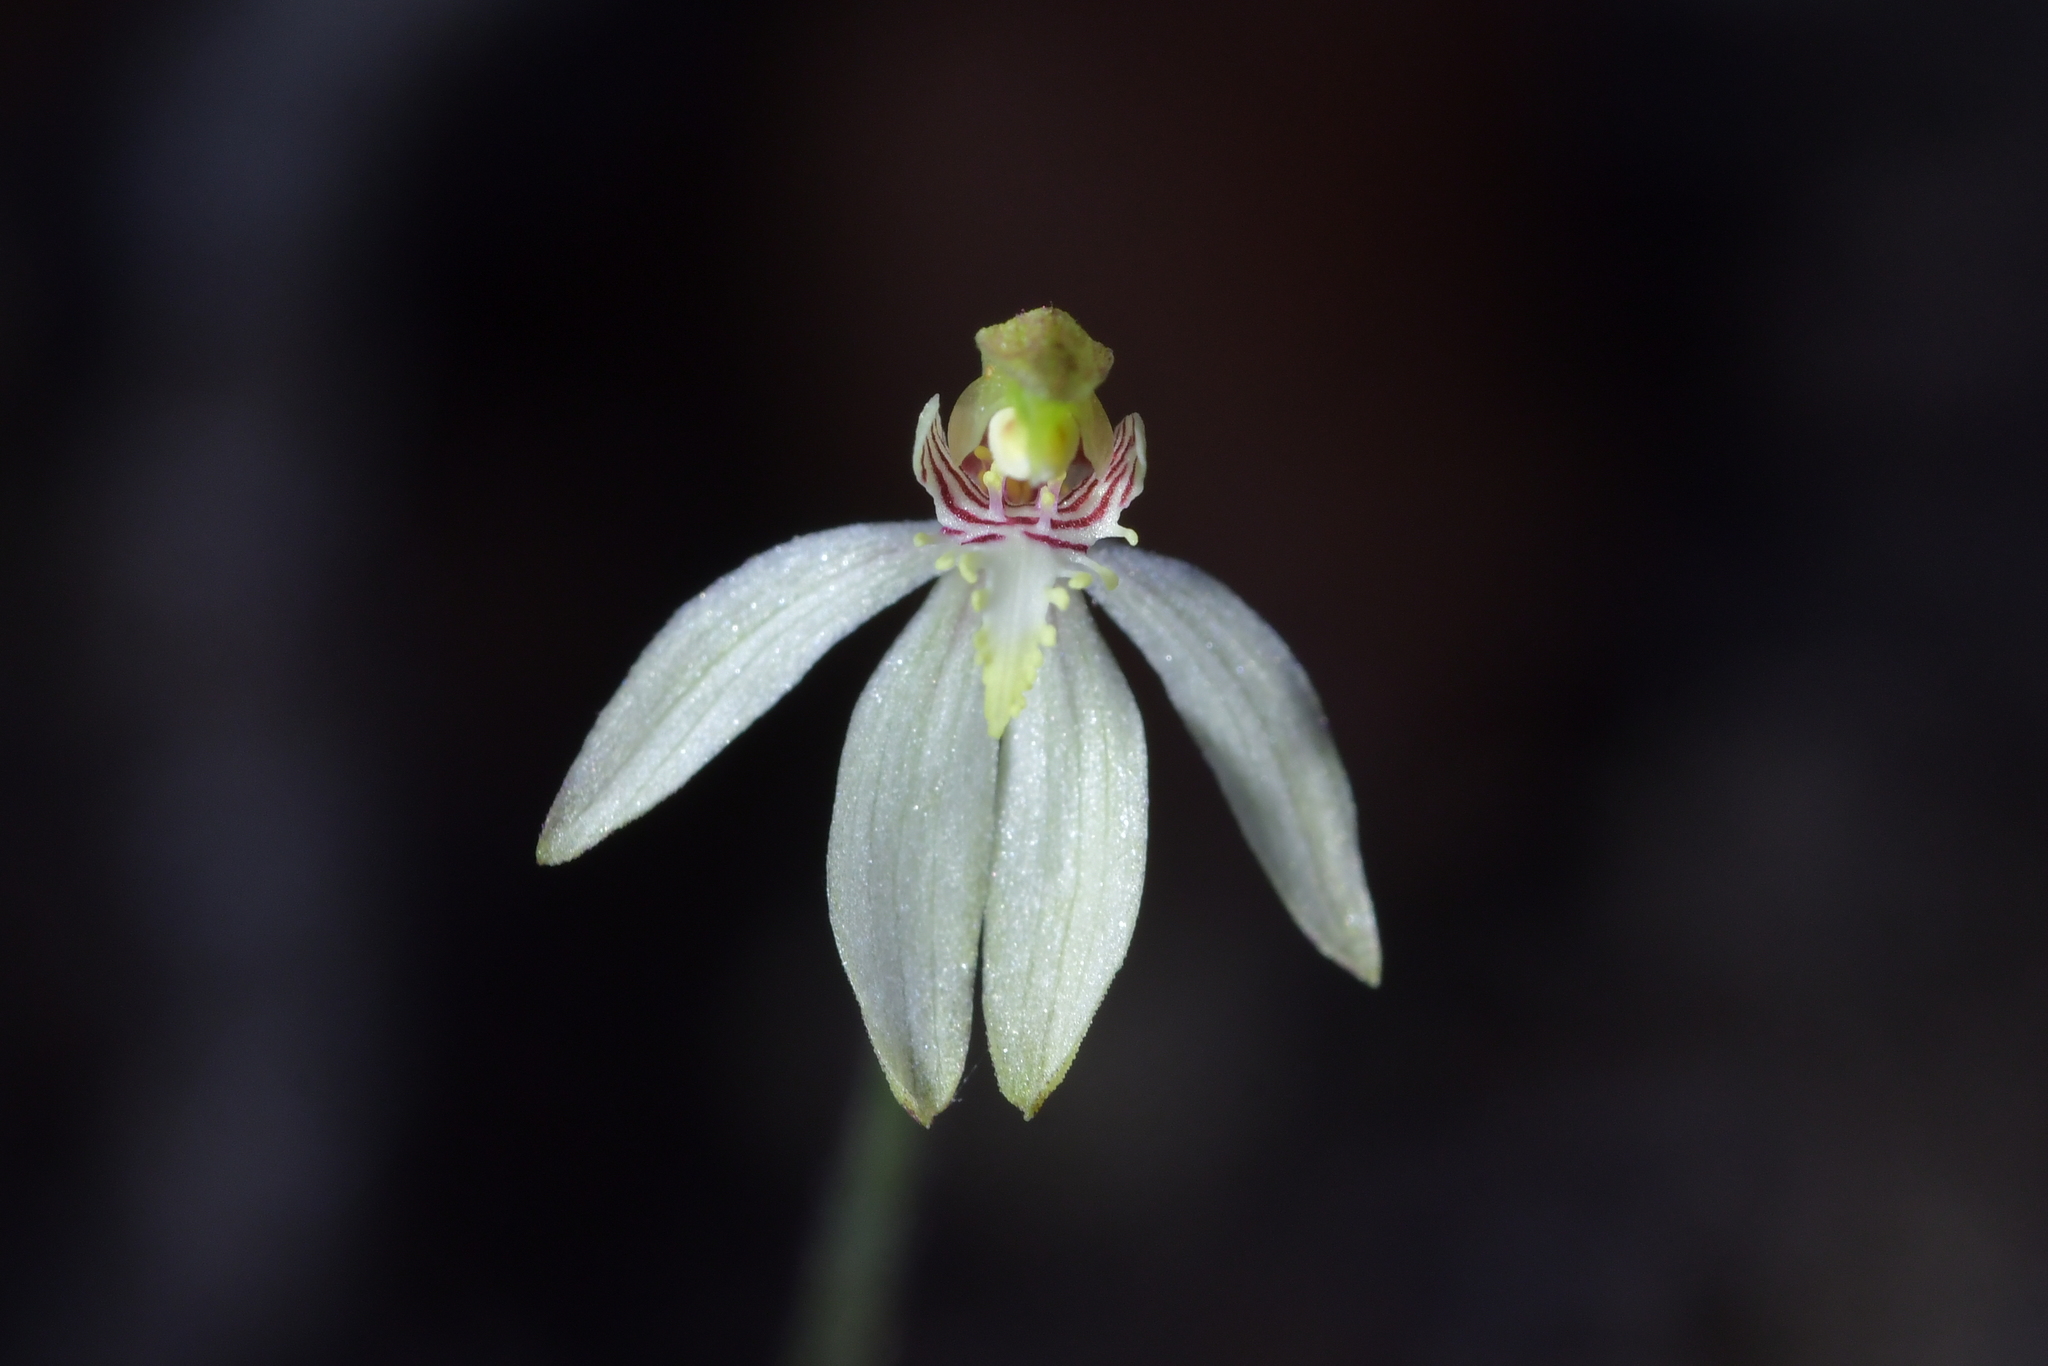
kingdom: Plantae
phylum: Tracheophyta
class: Liliopsida
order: Asparagales
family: Orchidaceae
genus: Caladenia
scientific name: Caladenia chlorostyla
